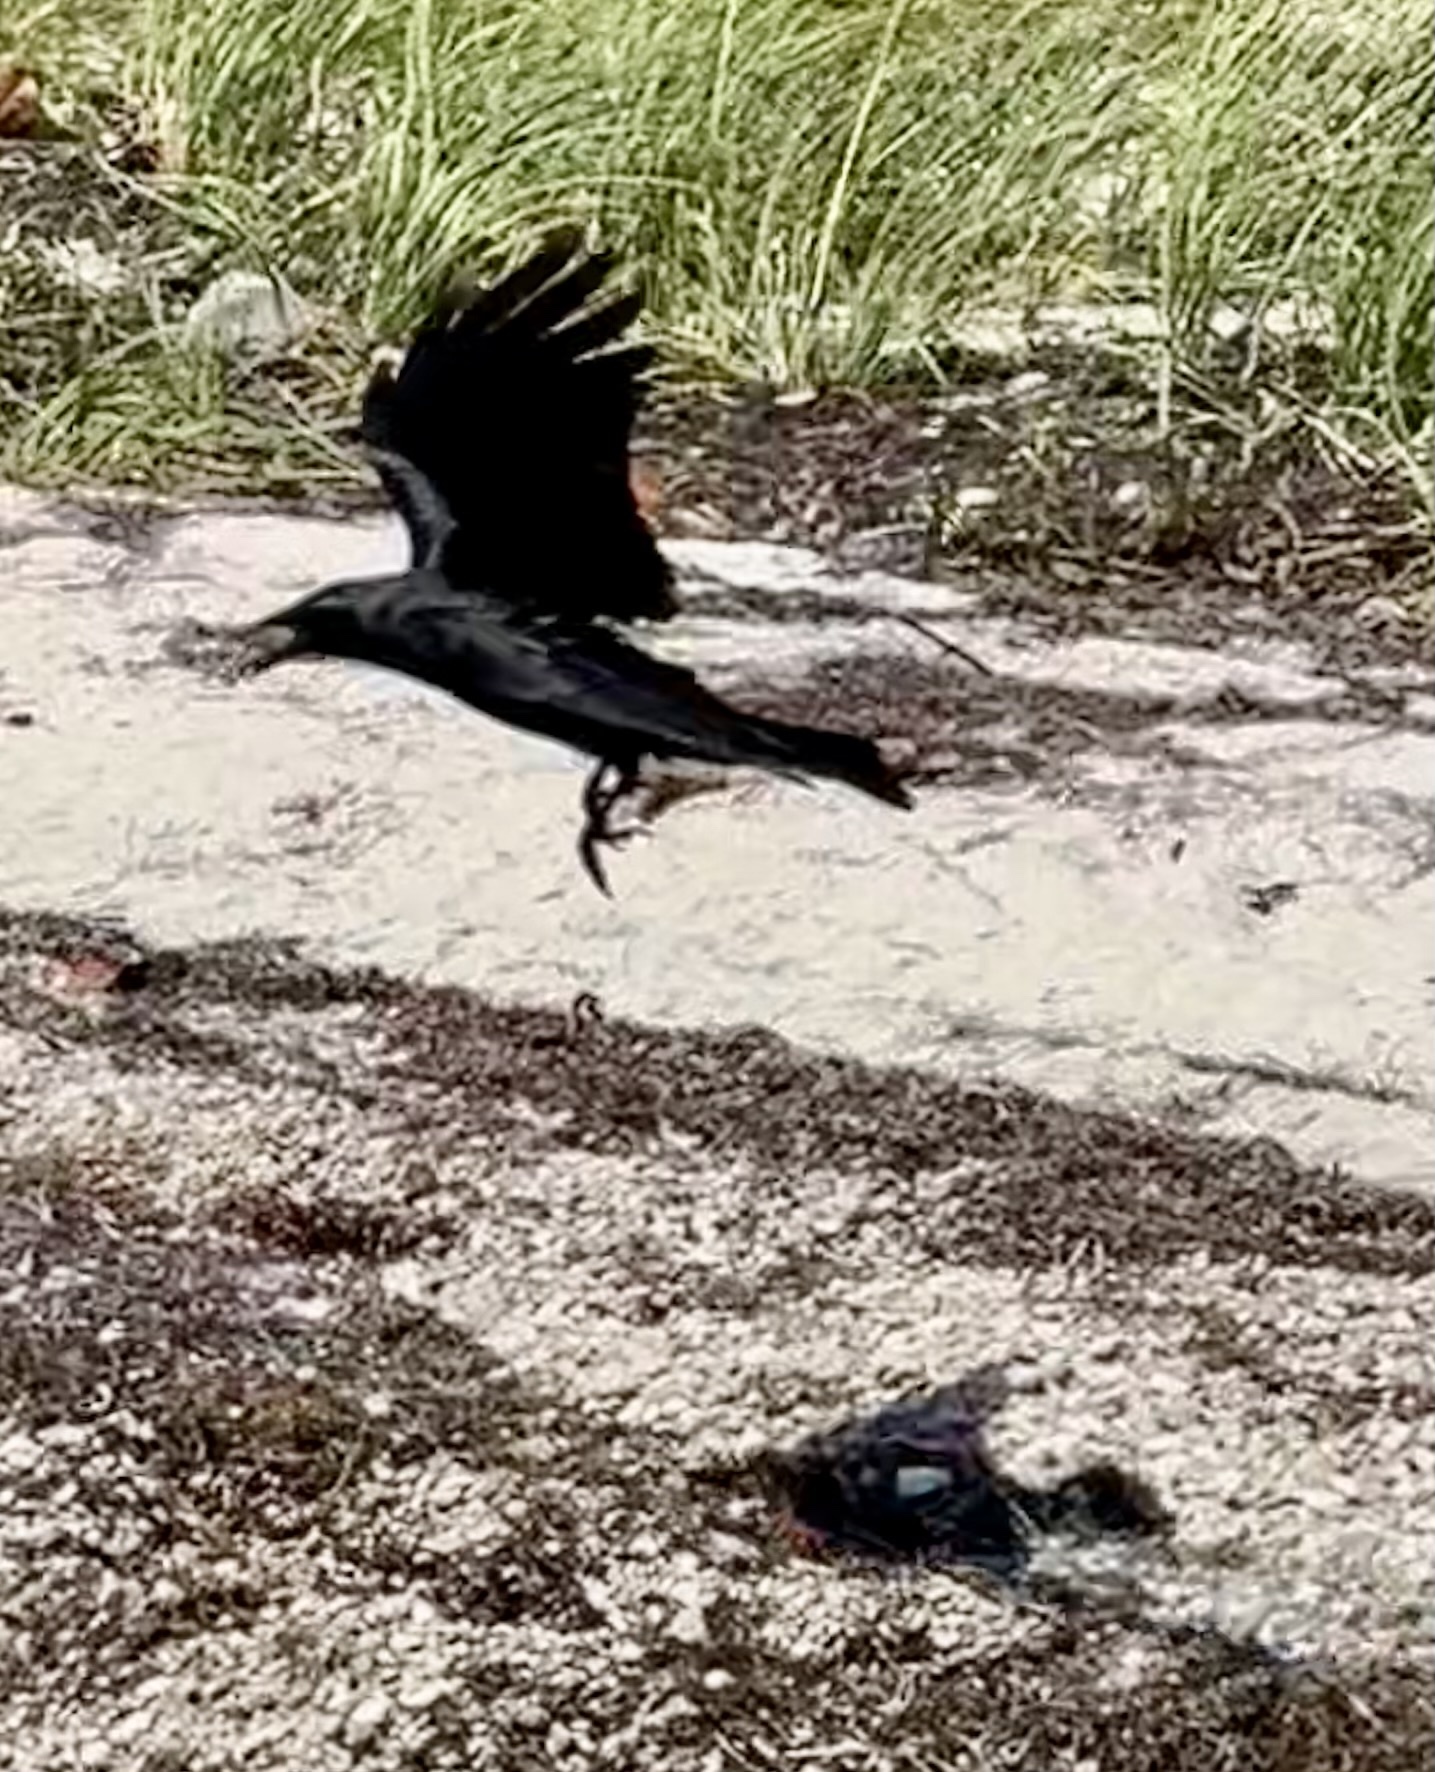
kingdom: Animalia
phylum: Chordata
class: Aves
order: Passeriformes
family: Corvidae
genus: Corvus
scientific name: Corvus ossifragus
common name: Fish crow
